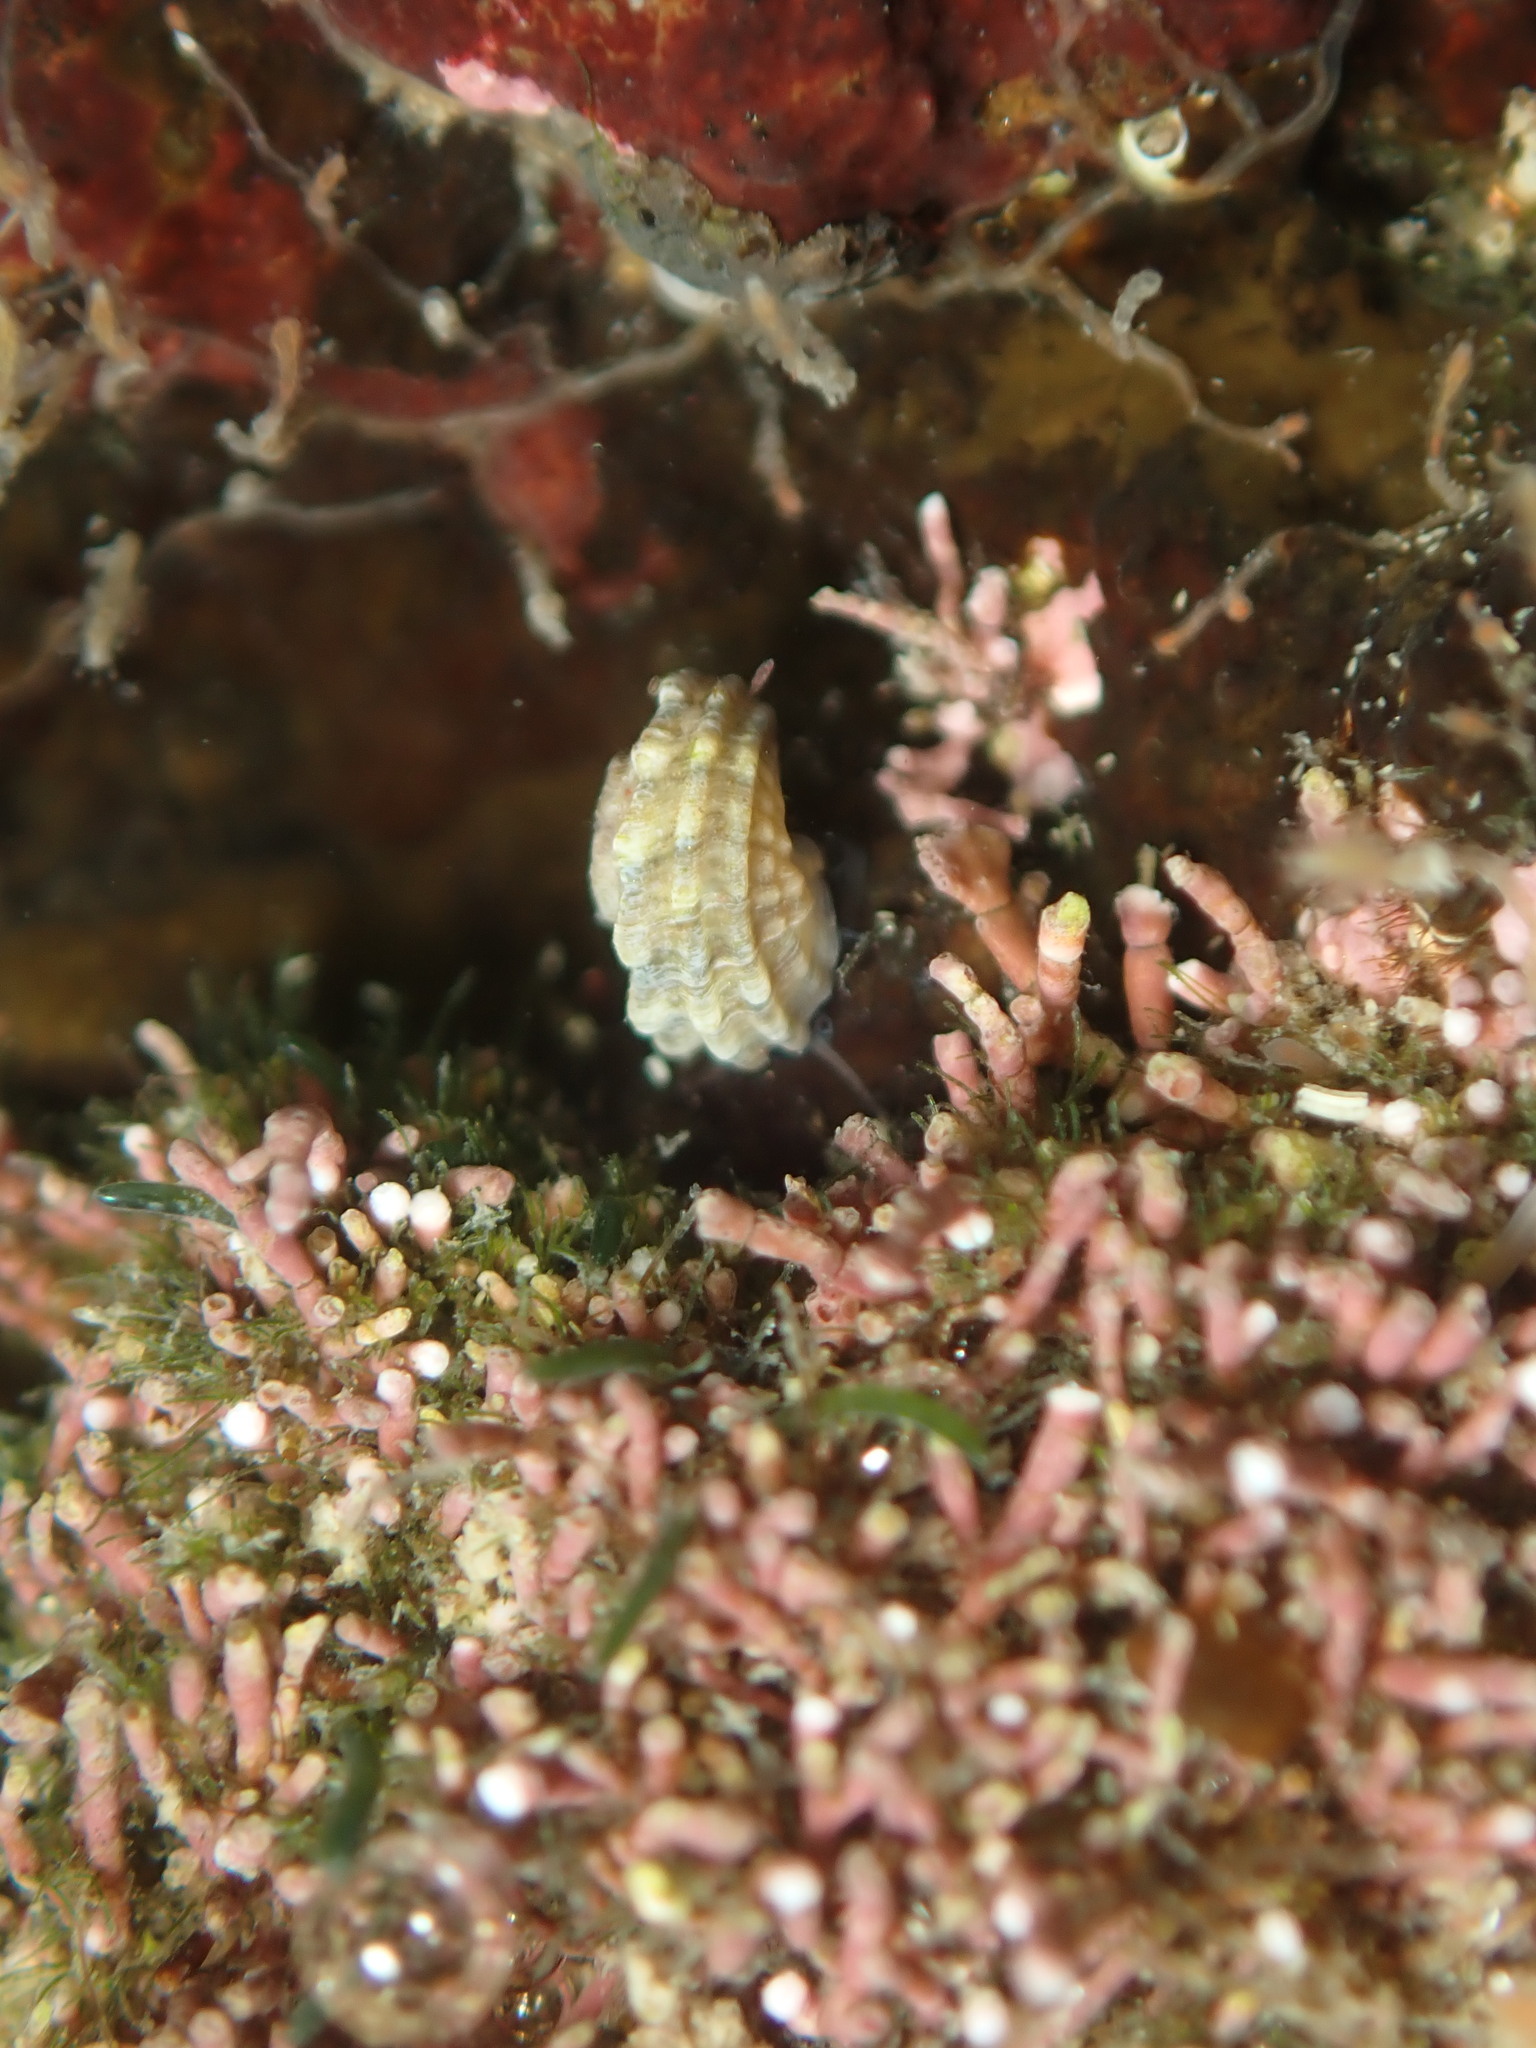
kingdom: Animalia
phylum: Mollusca
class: Gastropoda
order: Trochida
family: Turbinidae
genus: Lunella
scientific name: Lunella smaragda
